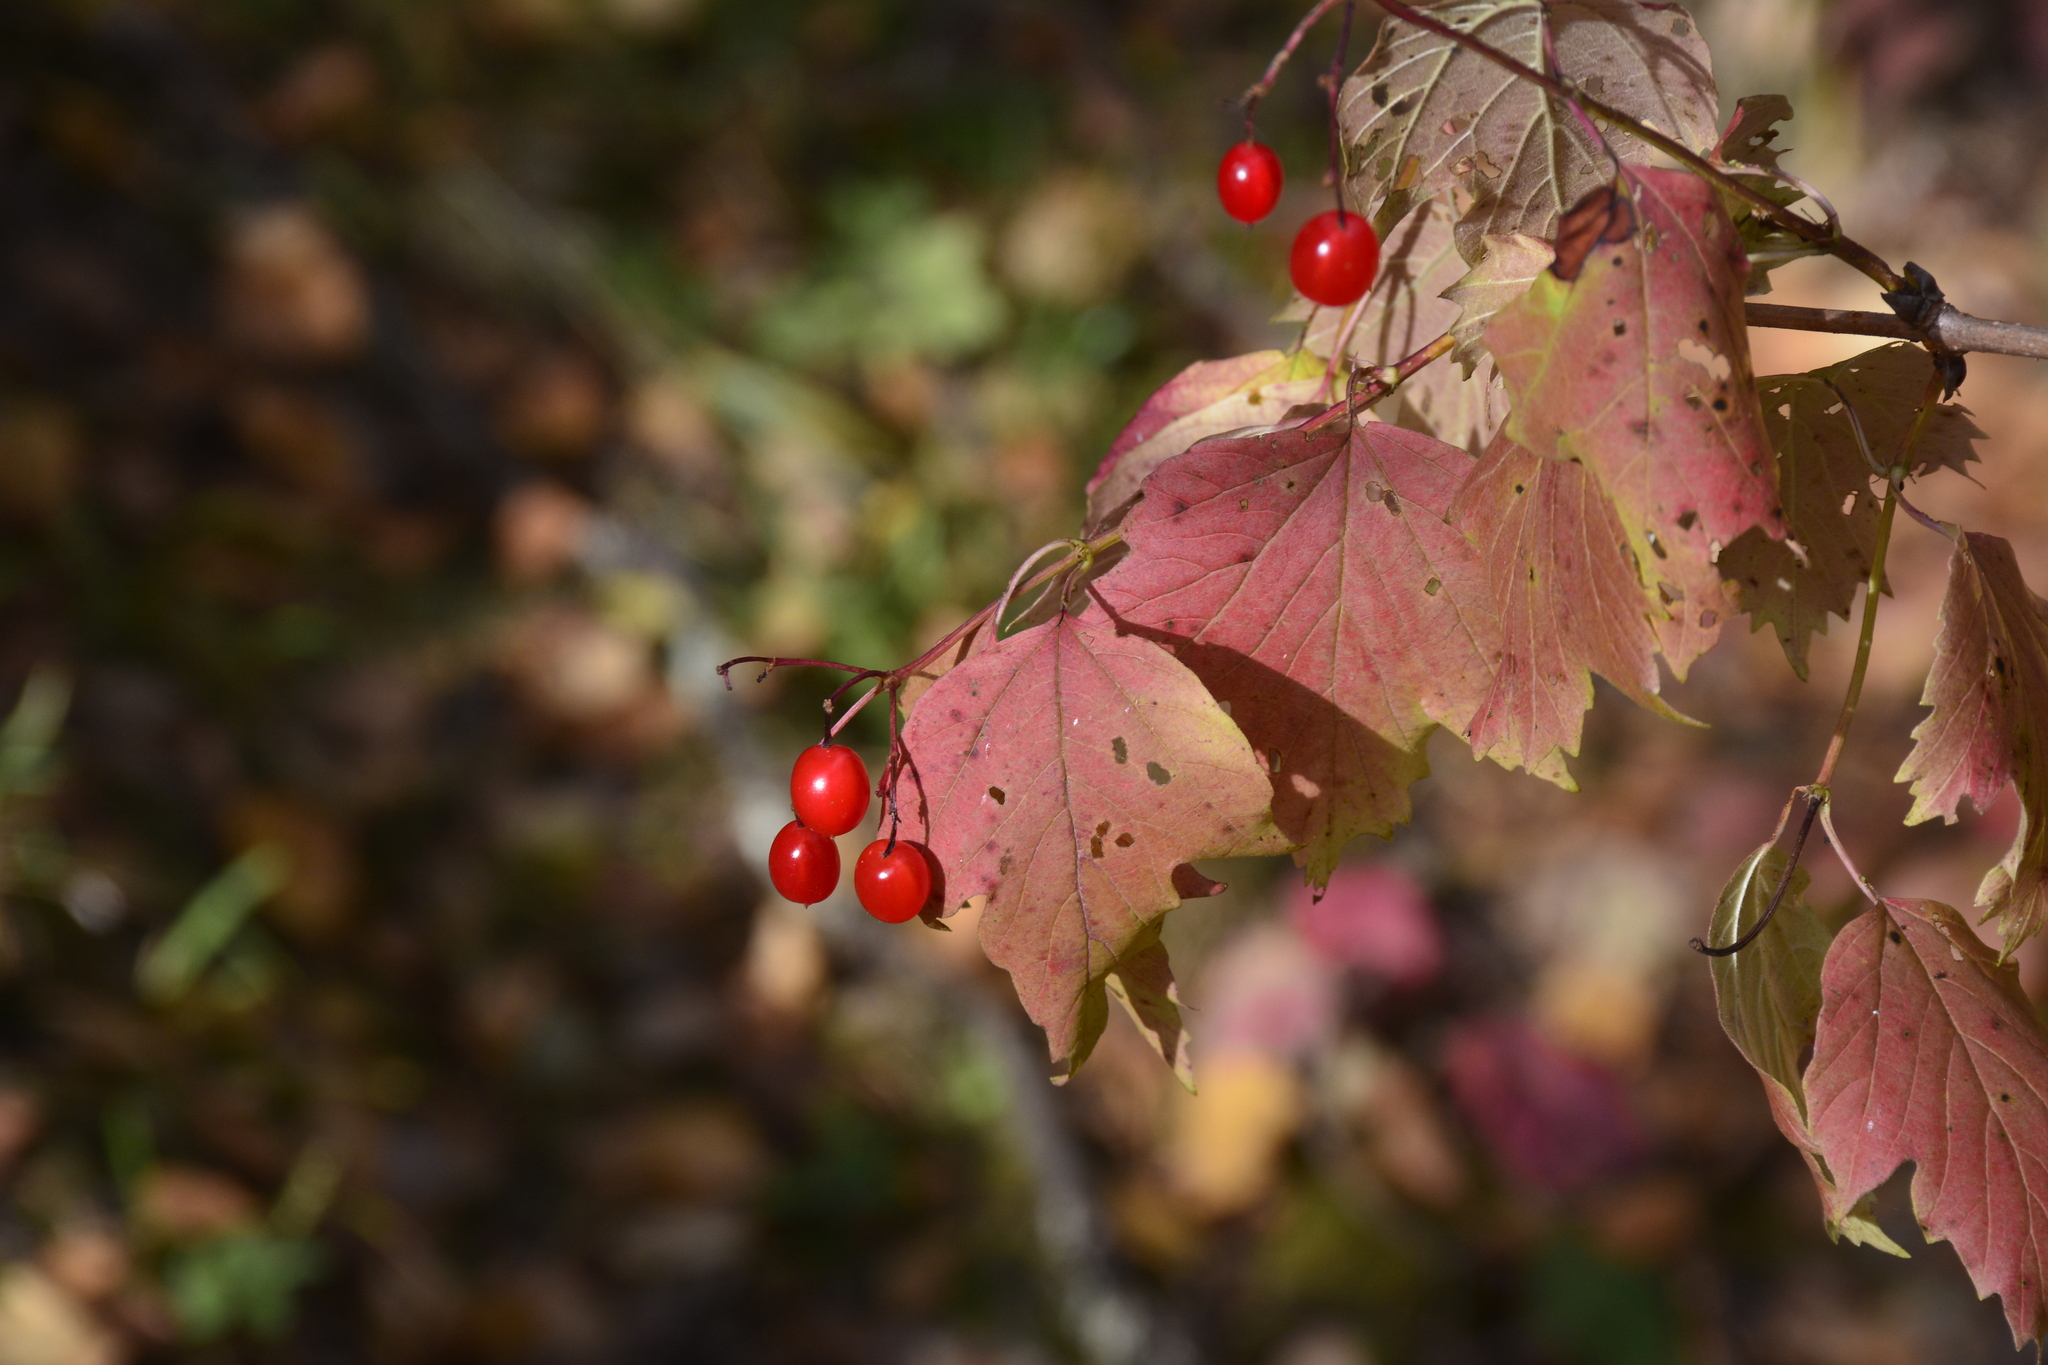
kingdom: Plantae
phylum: Tracheophyta
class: Magnoliopsida
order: Dipsacales
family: Viburnaceae
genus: Viburnum
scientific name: Viburnum opulus
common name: Guelder-rose
